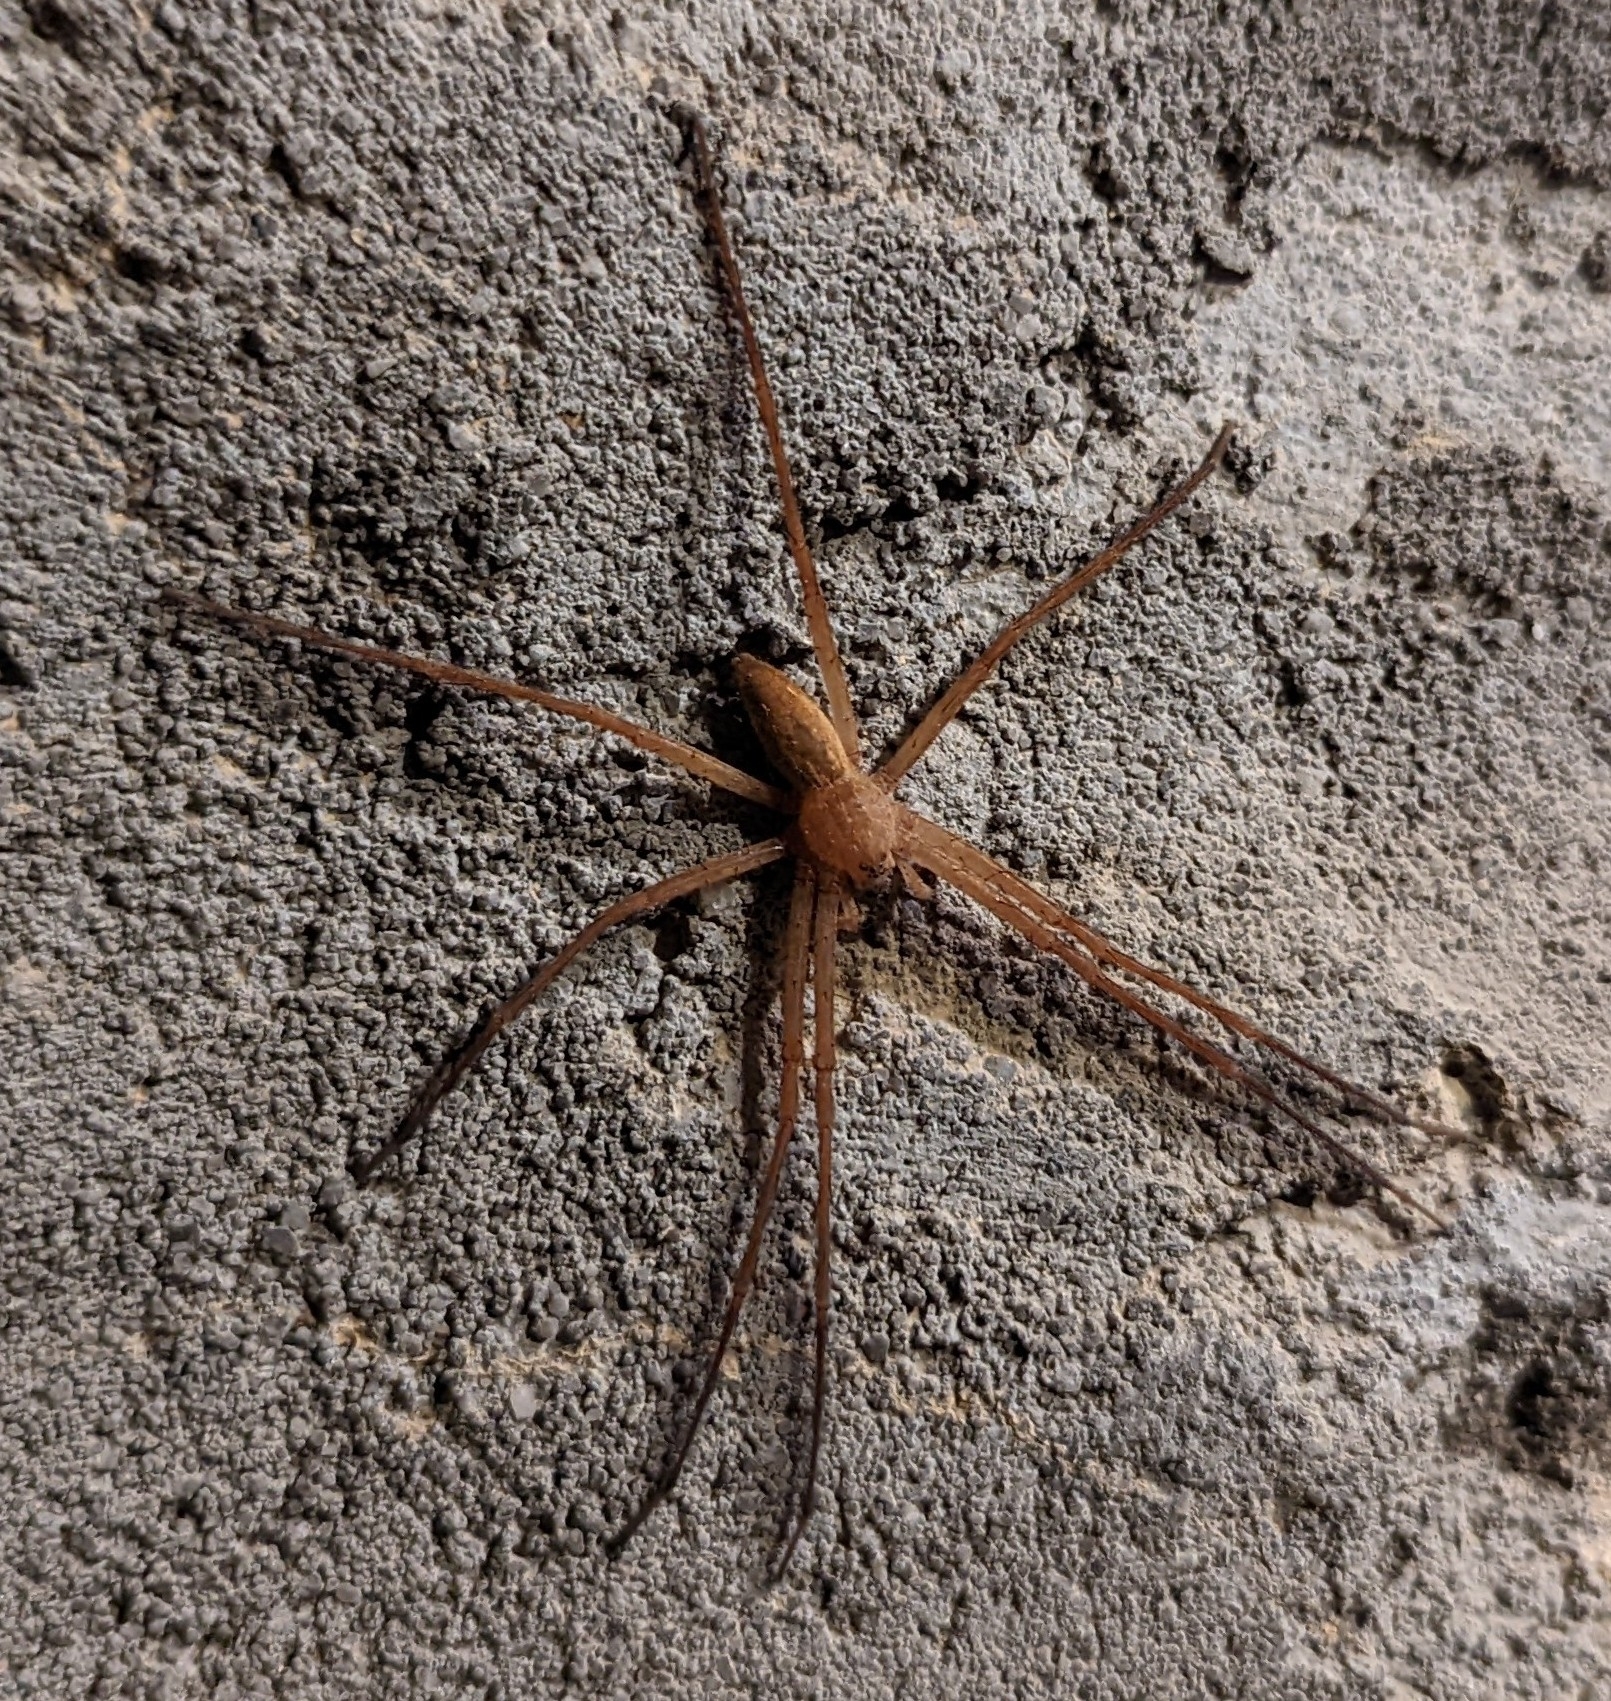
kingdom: Animalia
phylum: Arthropoda
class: Arachnida
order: Araneae
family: Pisauridae
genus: Pisaurina
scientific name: Pisaurina mira
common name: American nursery web spider
